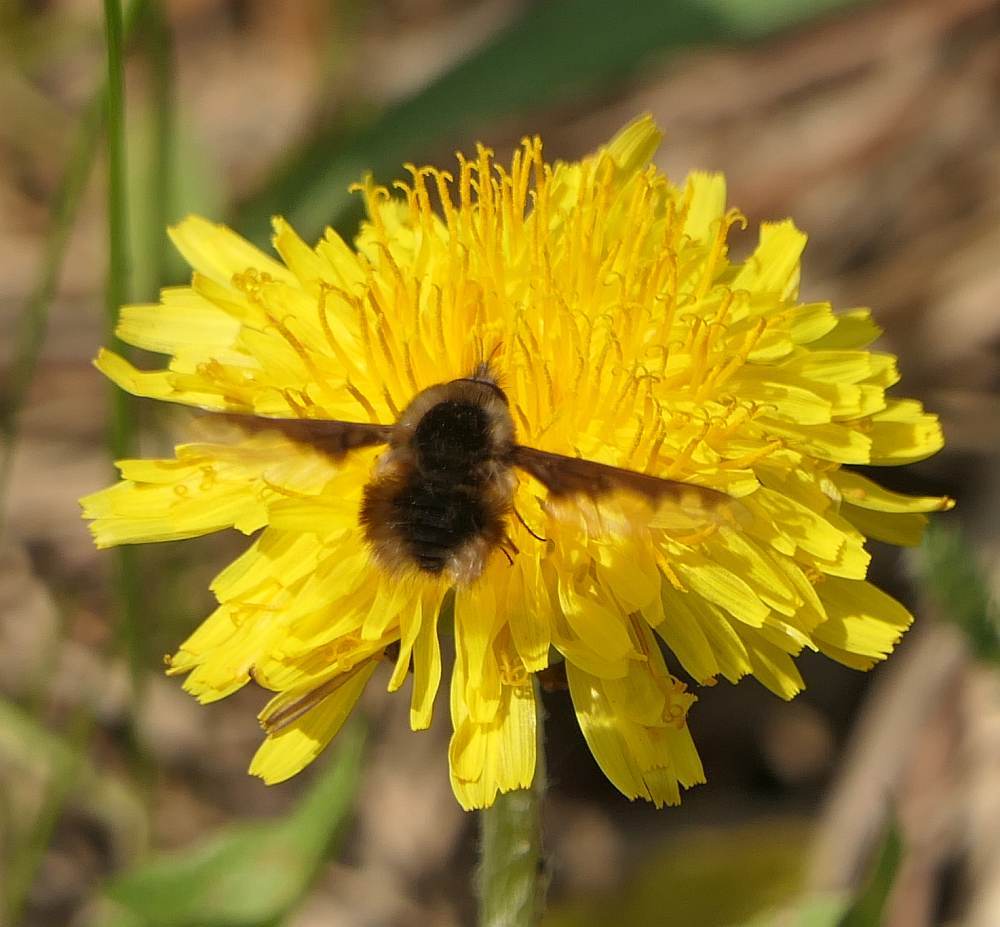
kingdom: Animalia
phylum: Arthropoda
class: Insecta
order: Diptera
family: Bombyliidae
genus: Bombylius
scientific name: Bombylius major
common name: Bee fly
